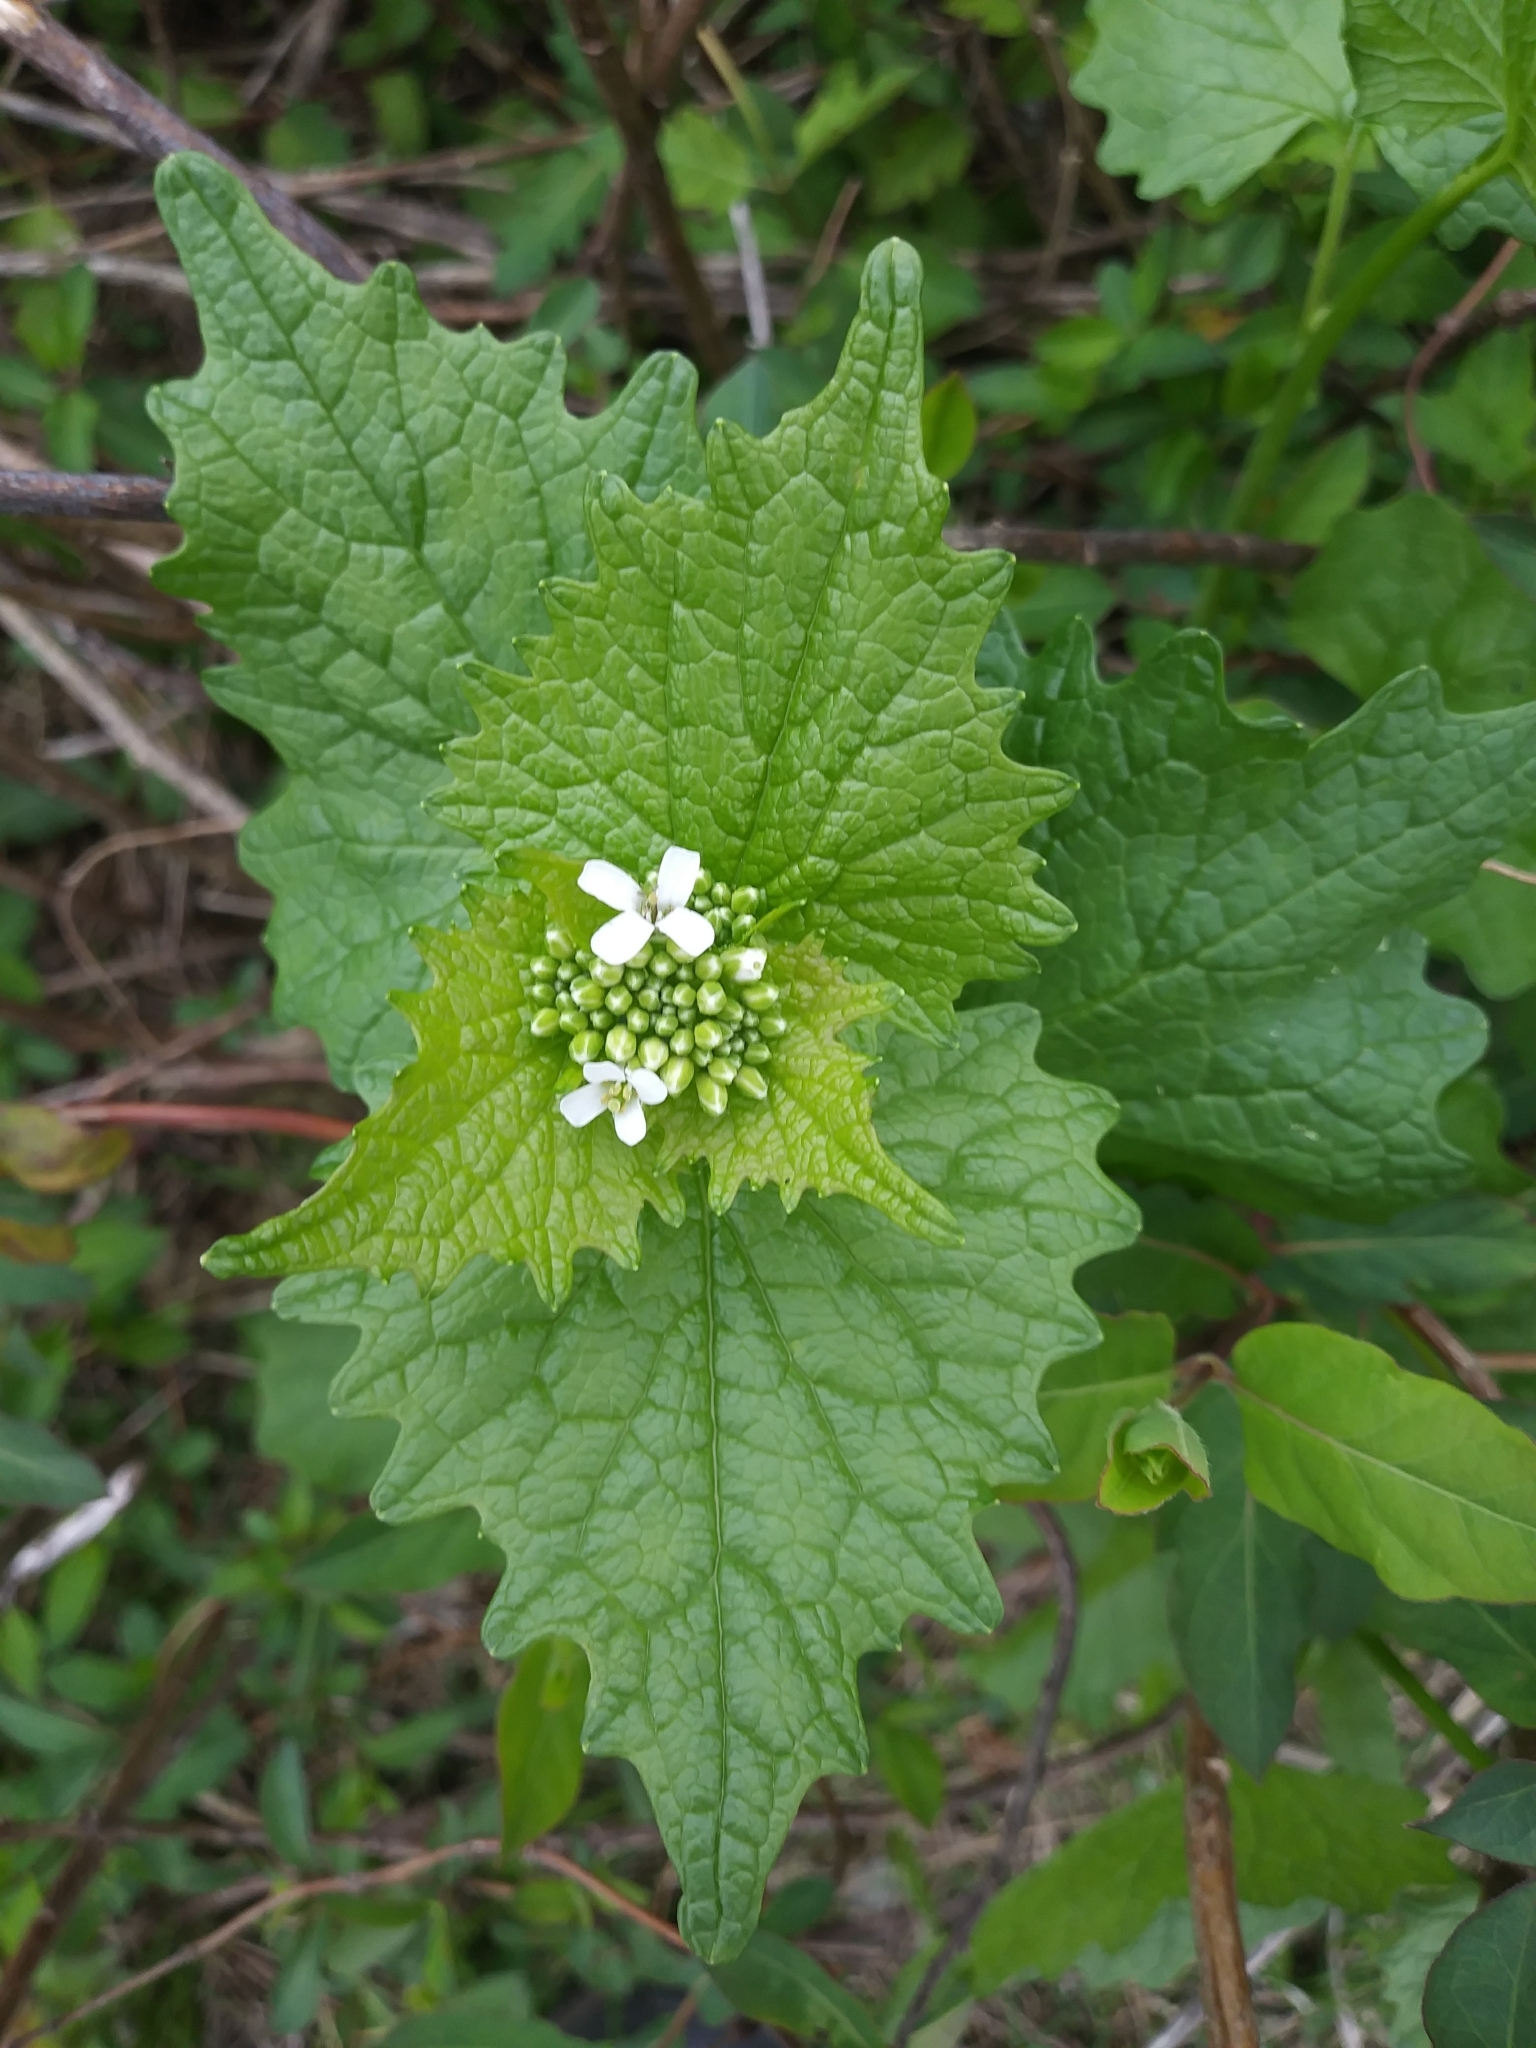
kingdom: Plantae
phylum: Tracheophyta
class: Magnoliopsida
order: Brassicales
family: Brassicaceae
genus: Alliaria
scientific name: Alliaria petiolata
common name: Garlic mustard
